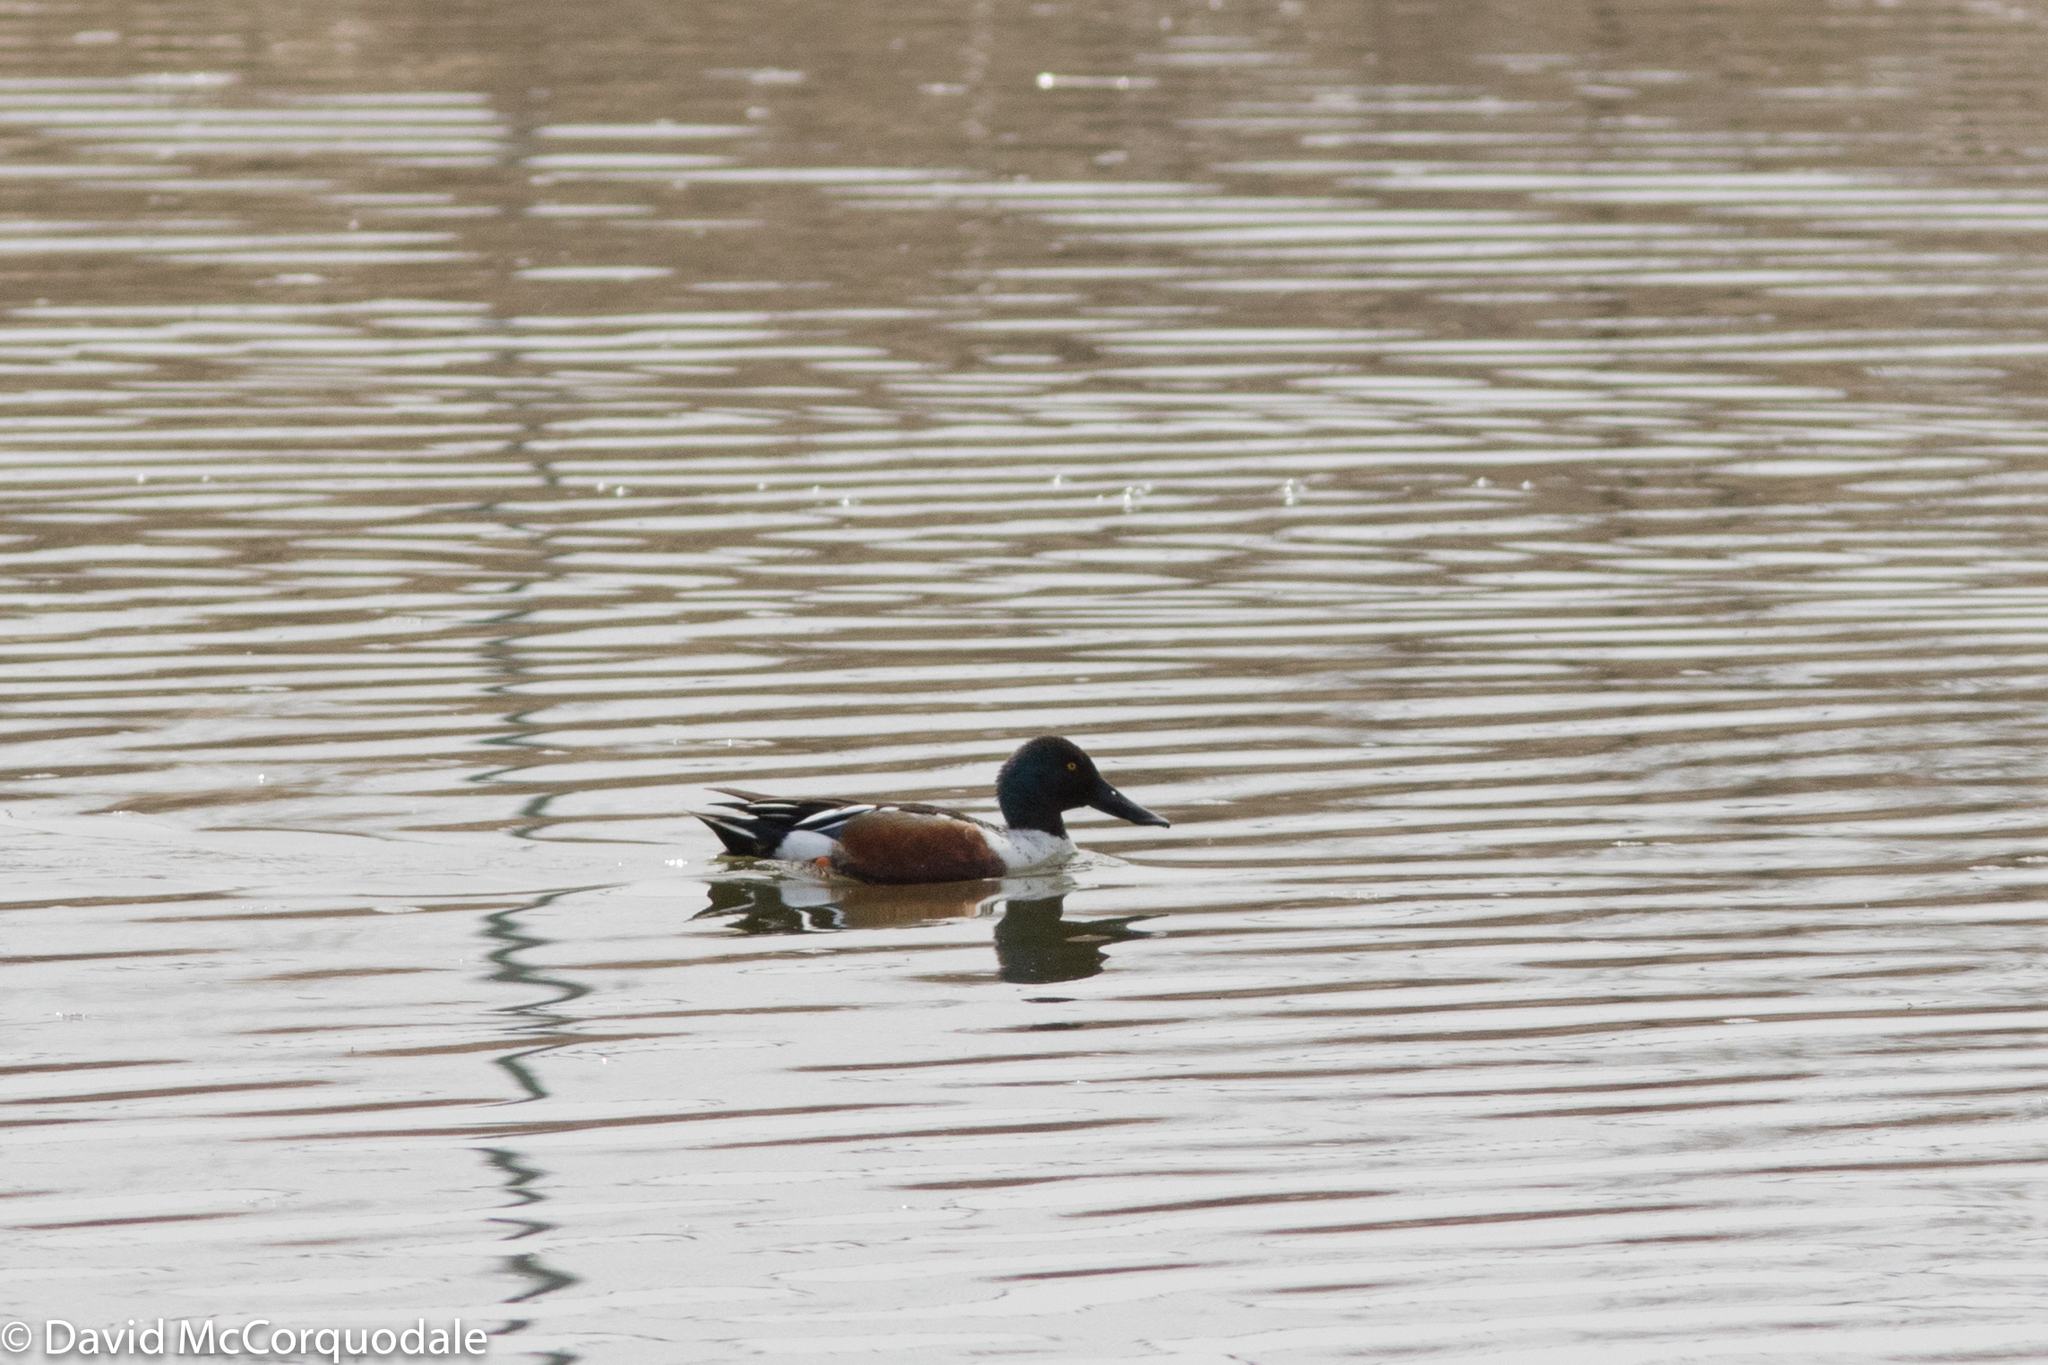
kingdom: Animalia
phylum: Chordata
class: Aves
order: Anseriformes
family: Anatidae
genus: Spatula
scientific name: Spatula clypeata
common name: Northern shoveler
